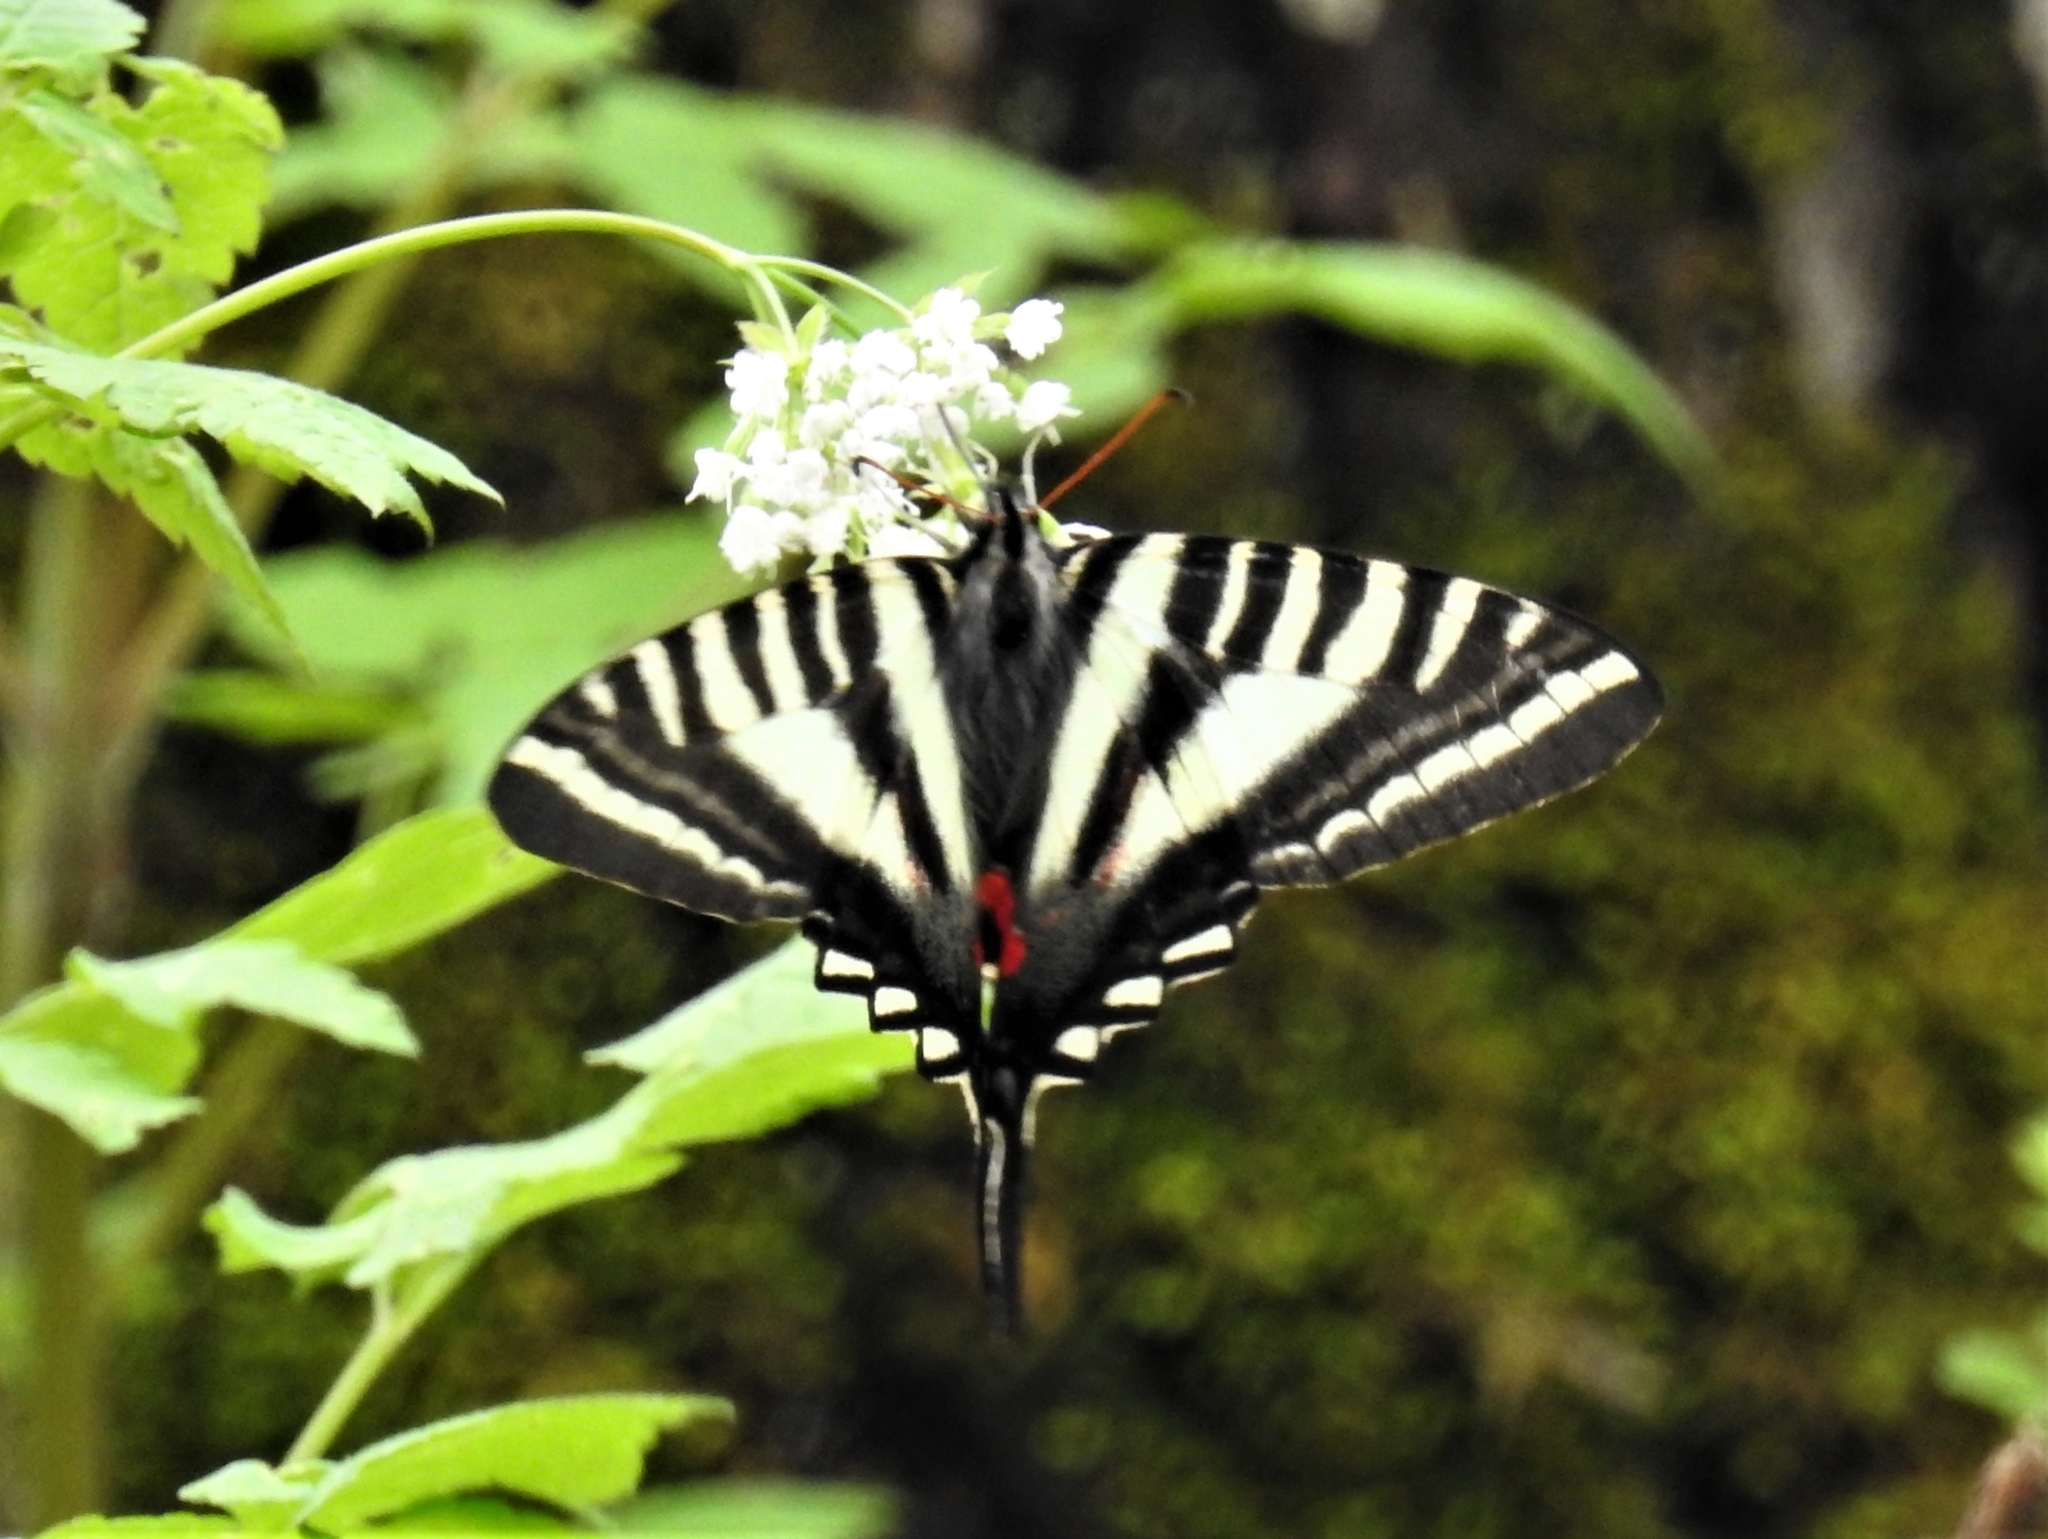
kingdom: Animalia
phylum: Arthropoda
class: Insecta
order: Lepidoptera
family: Papilionidae
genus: Protographium
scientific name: Protographium marcellus
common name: Zebra swallowtail
